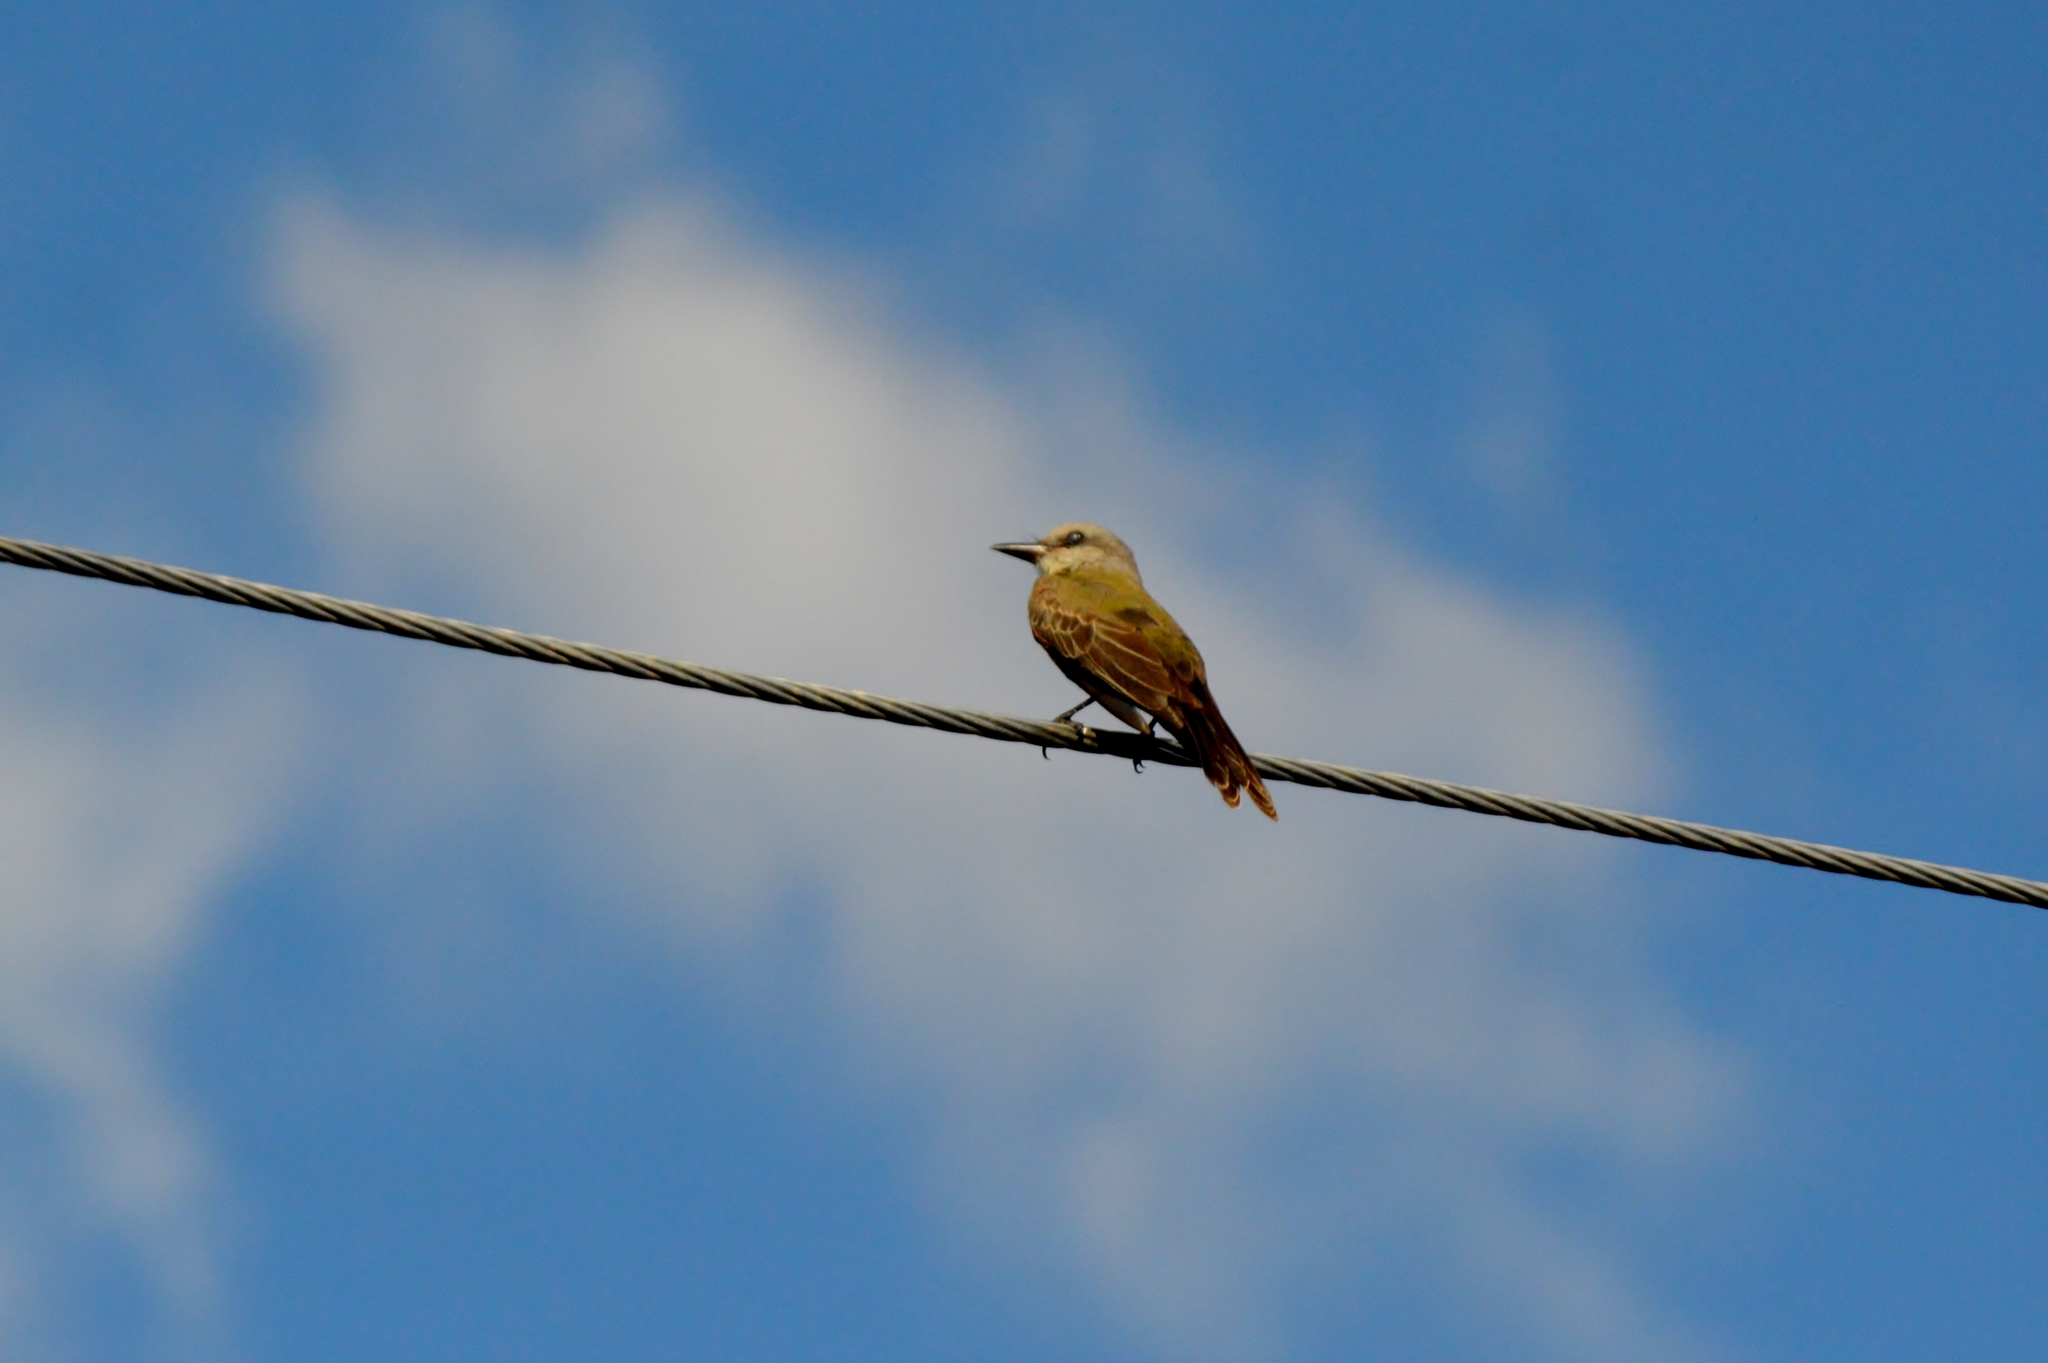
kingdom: Animalia
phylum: Chordata
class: Aves
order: Passeriformes
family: Tyrannidae
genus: Tyrannus
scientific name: Tyrannus melancholicus
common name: Tropical kingbird
